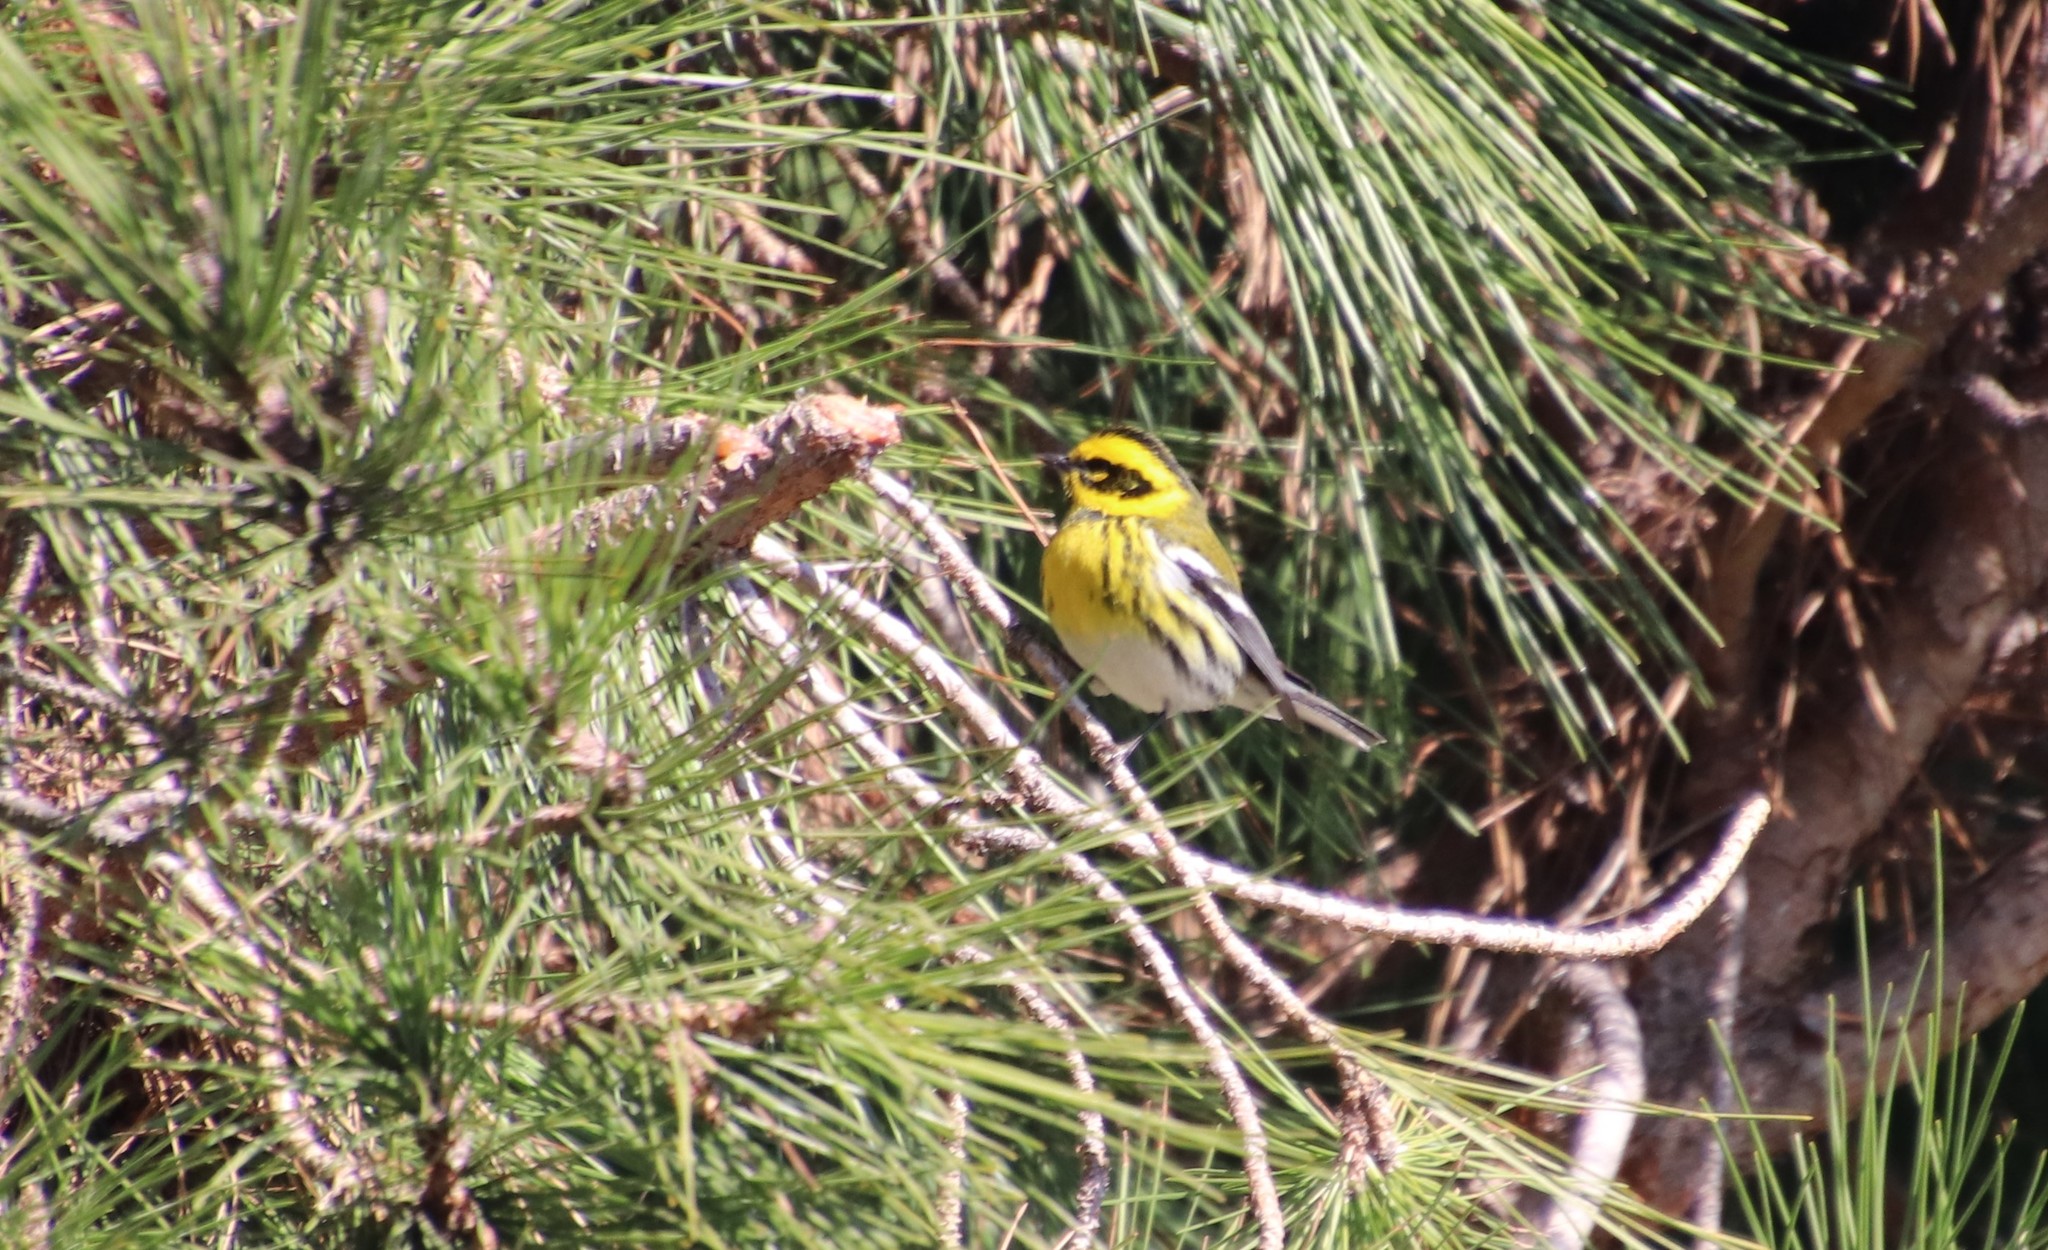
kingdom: Animalia
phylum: Chordata
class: Aves
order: Passeriformes
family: Parulidae
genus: Setophaga
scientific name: Setophaga townsendi
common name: Townsend's warbler
